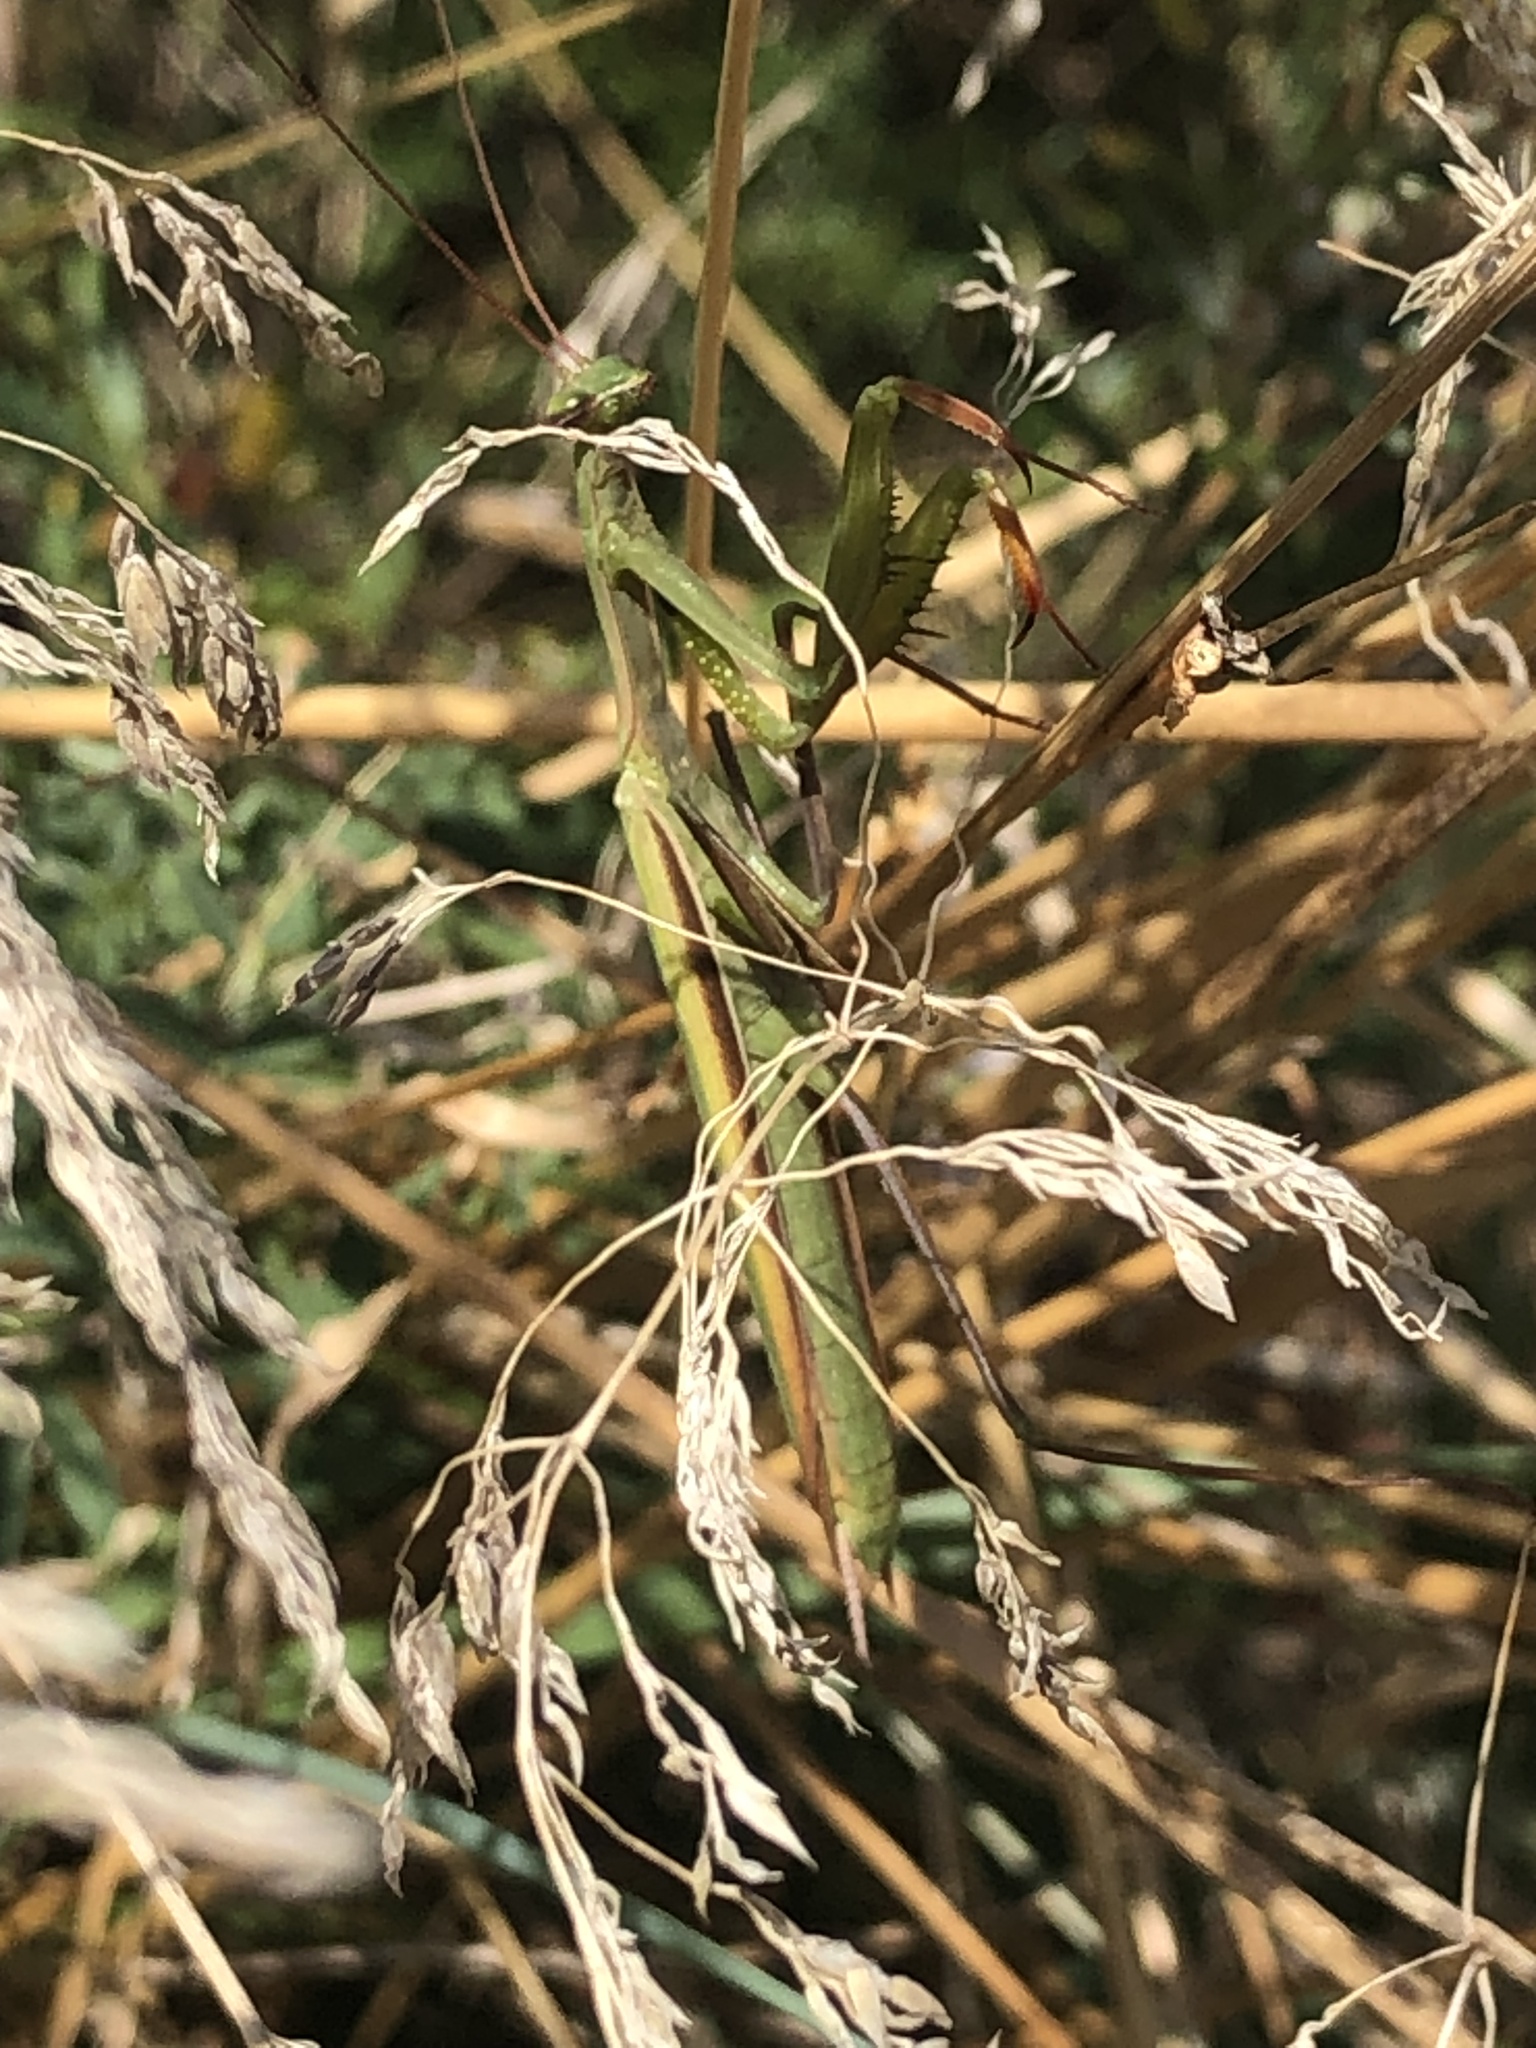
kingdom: Animalia
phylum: Arthropoda
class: Insecta
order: Mantodea
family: Mantidae
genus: Mantis
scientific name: Mantis religiosa
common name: Praying mantis
